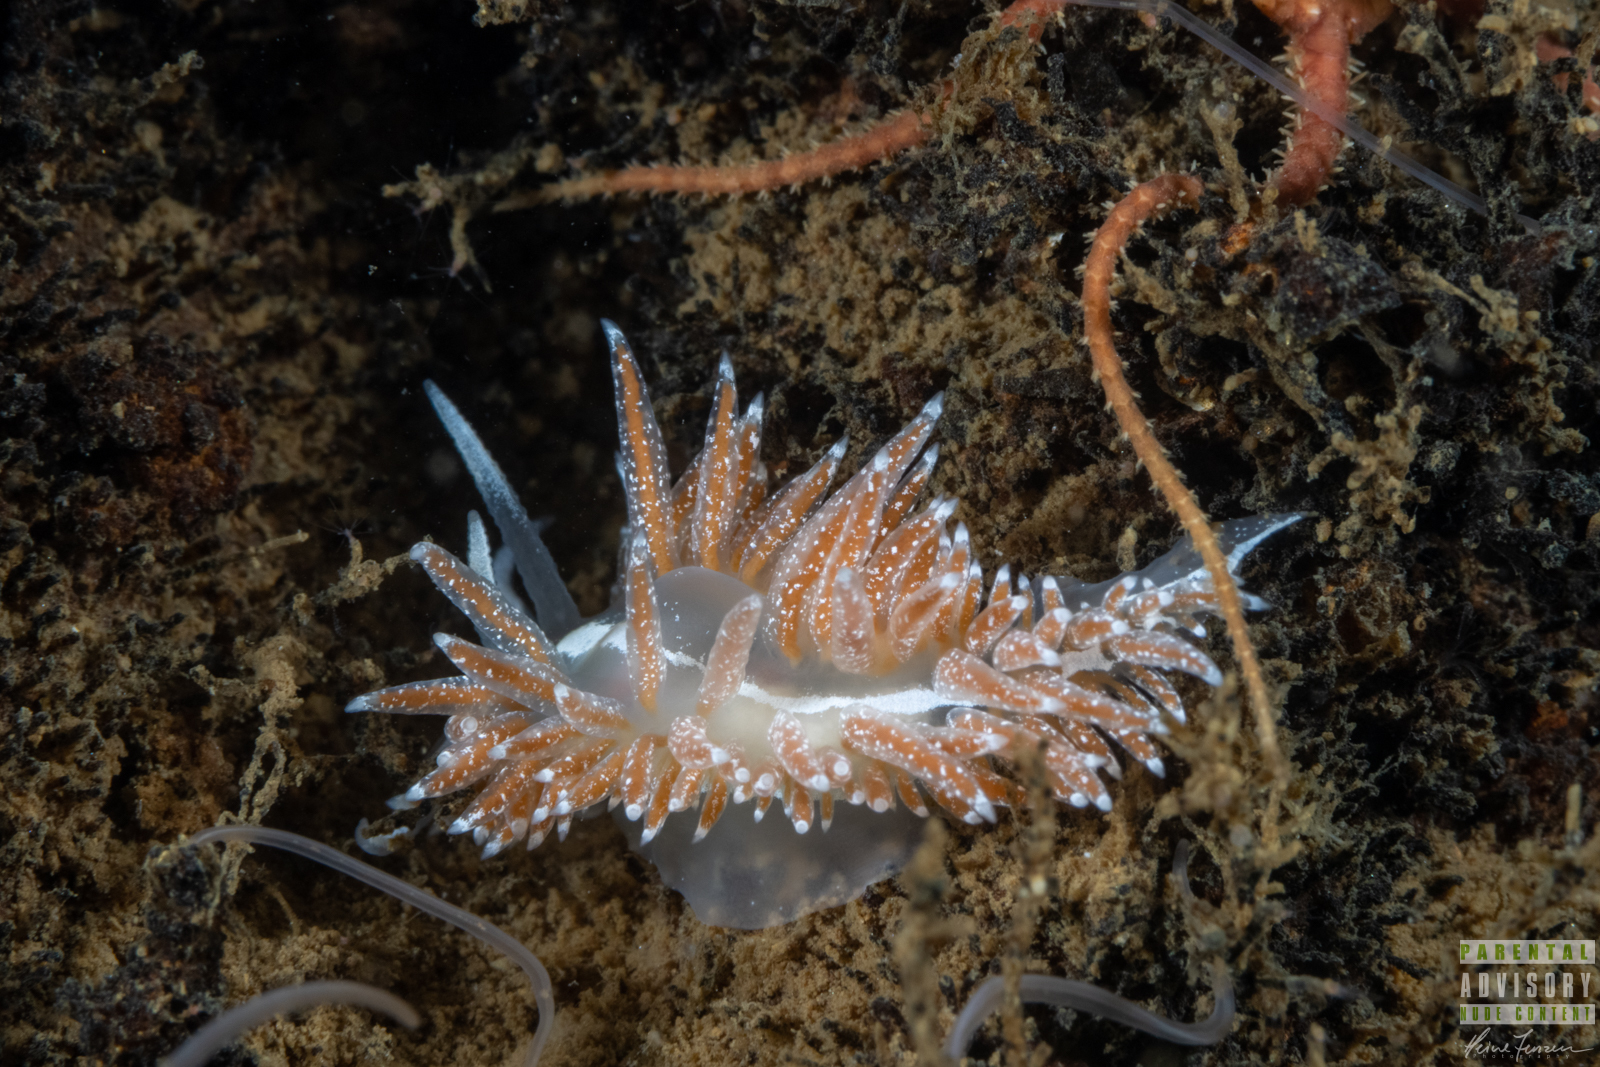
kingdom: Animalia
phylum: Mollusca
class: Gastropoda
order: Nudibranchia
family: Coryphellidae
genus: Coryphella
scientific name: Coryphella orjani
